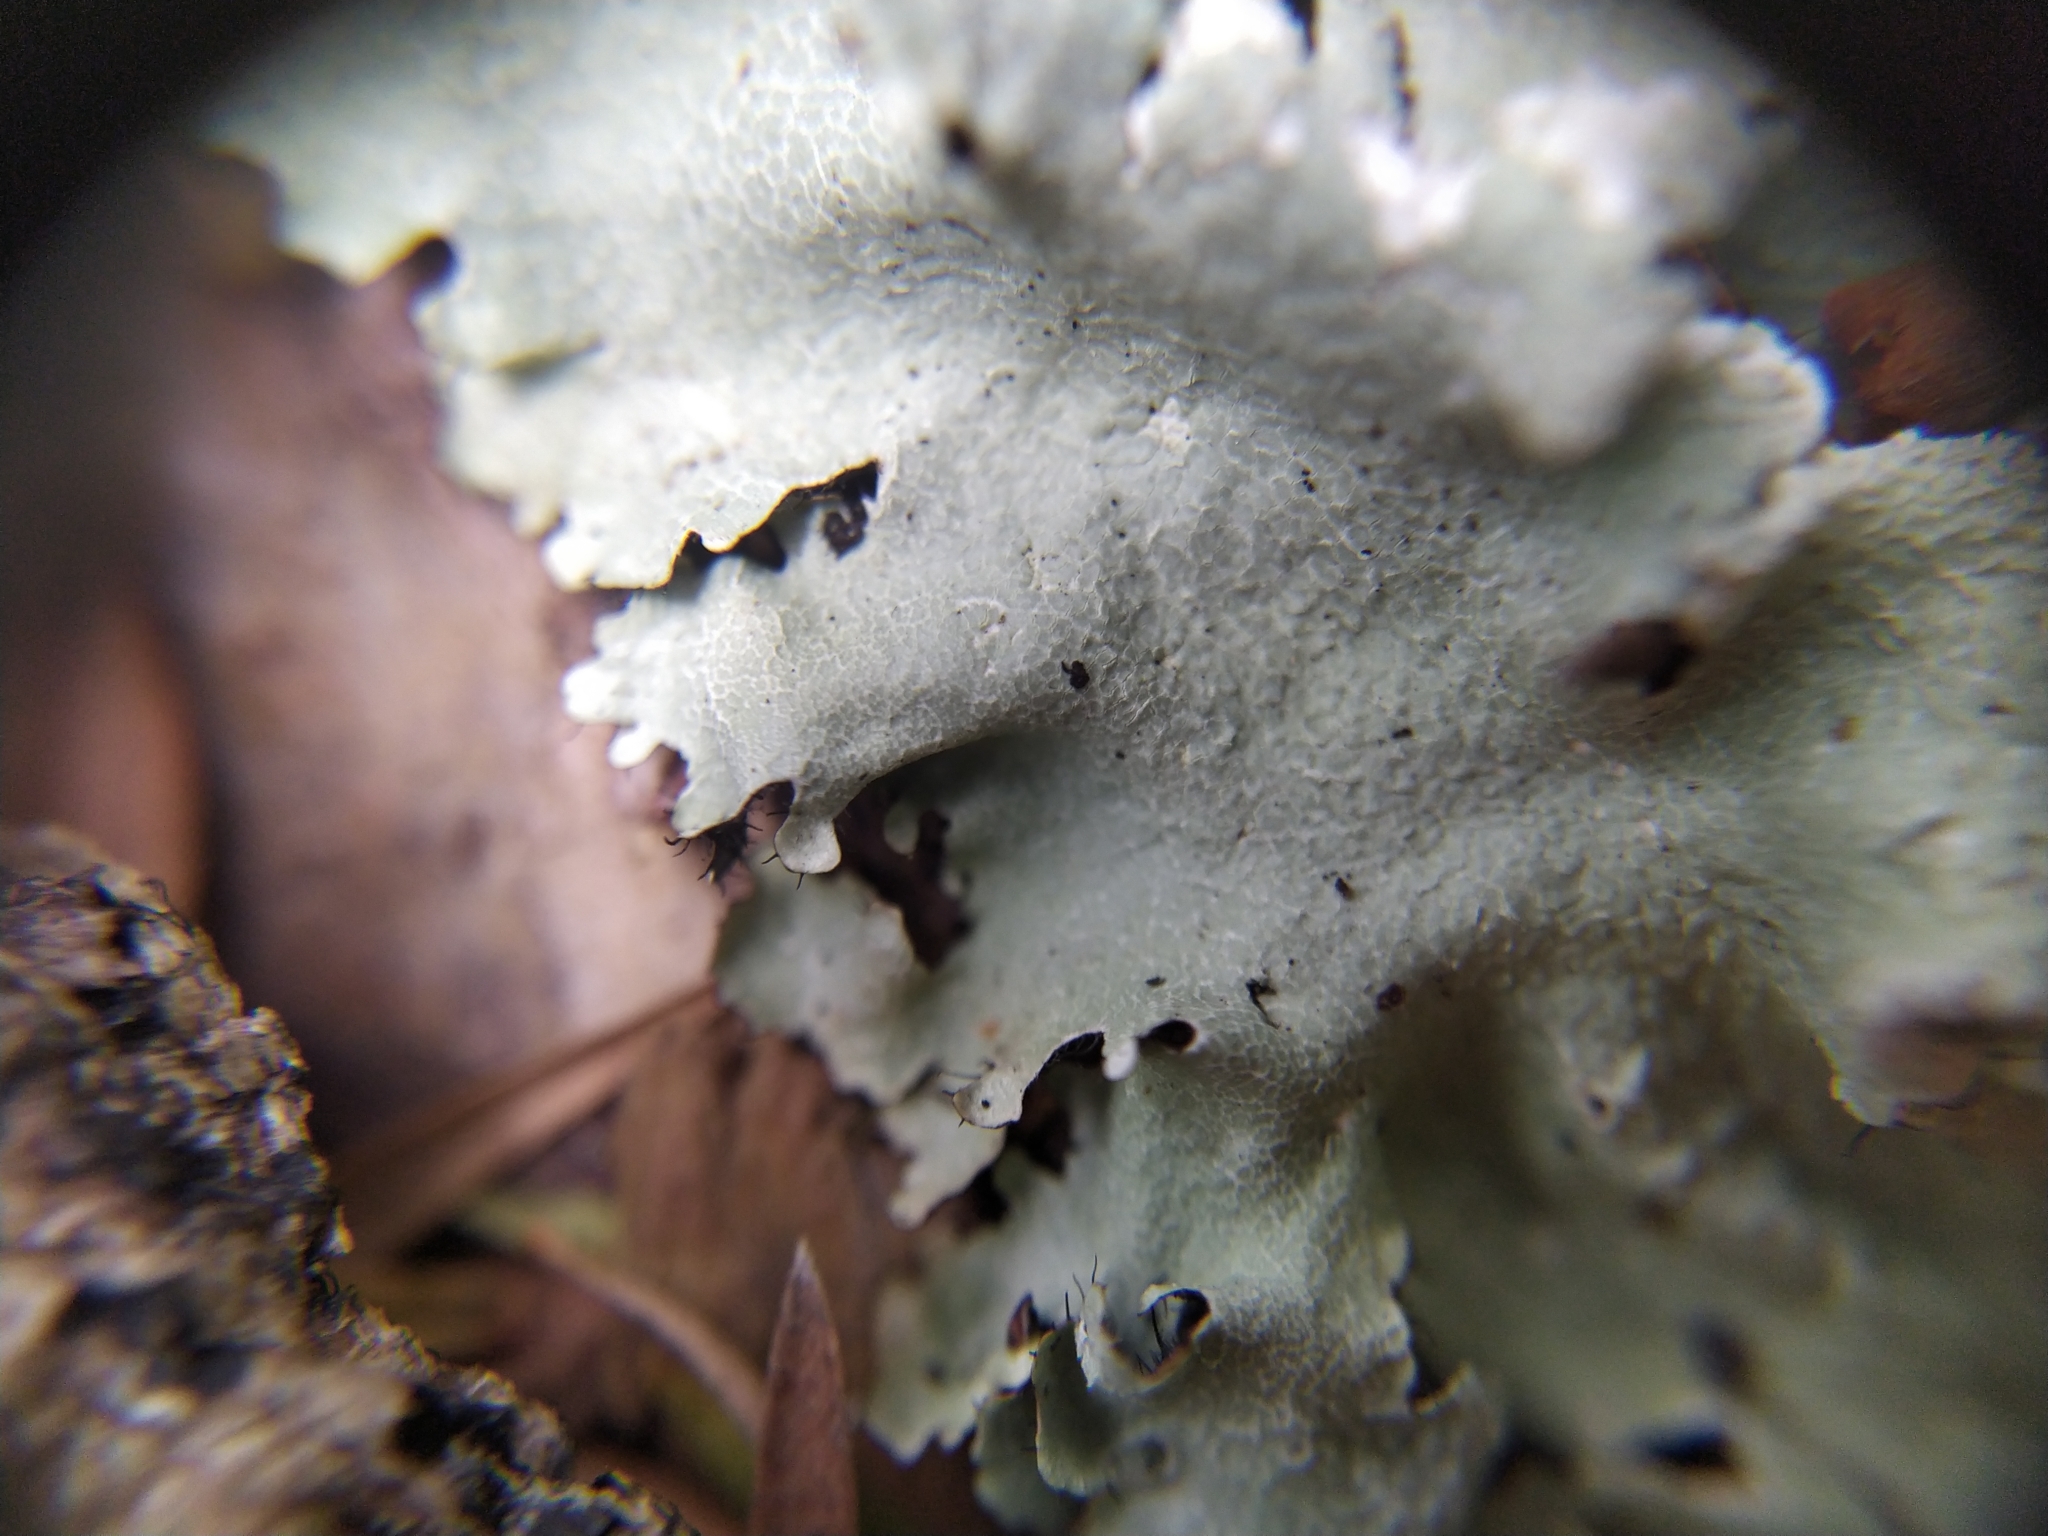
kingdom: Fungi
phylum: Ascomycota
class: Lecanoromycetes
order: Lecanorales
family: Parmeliaceae
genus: Parmotrema
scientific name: Parmotrema austrocetratum
